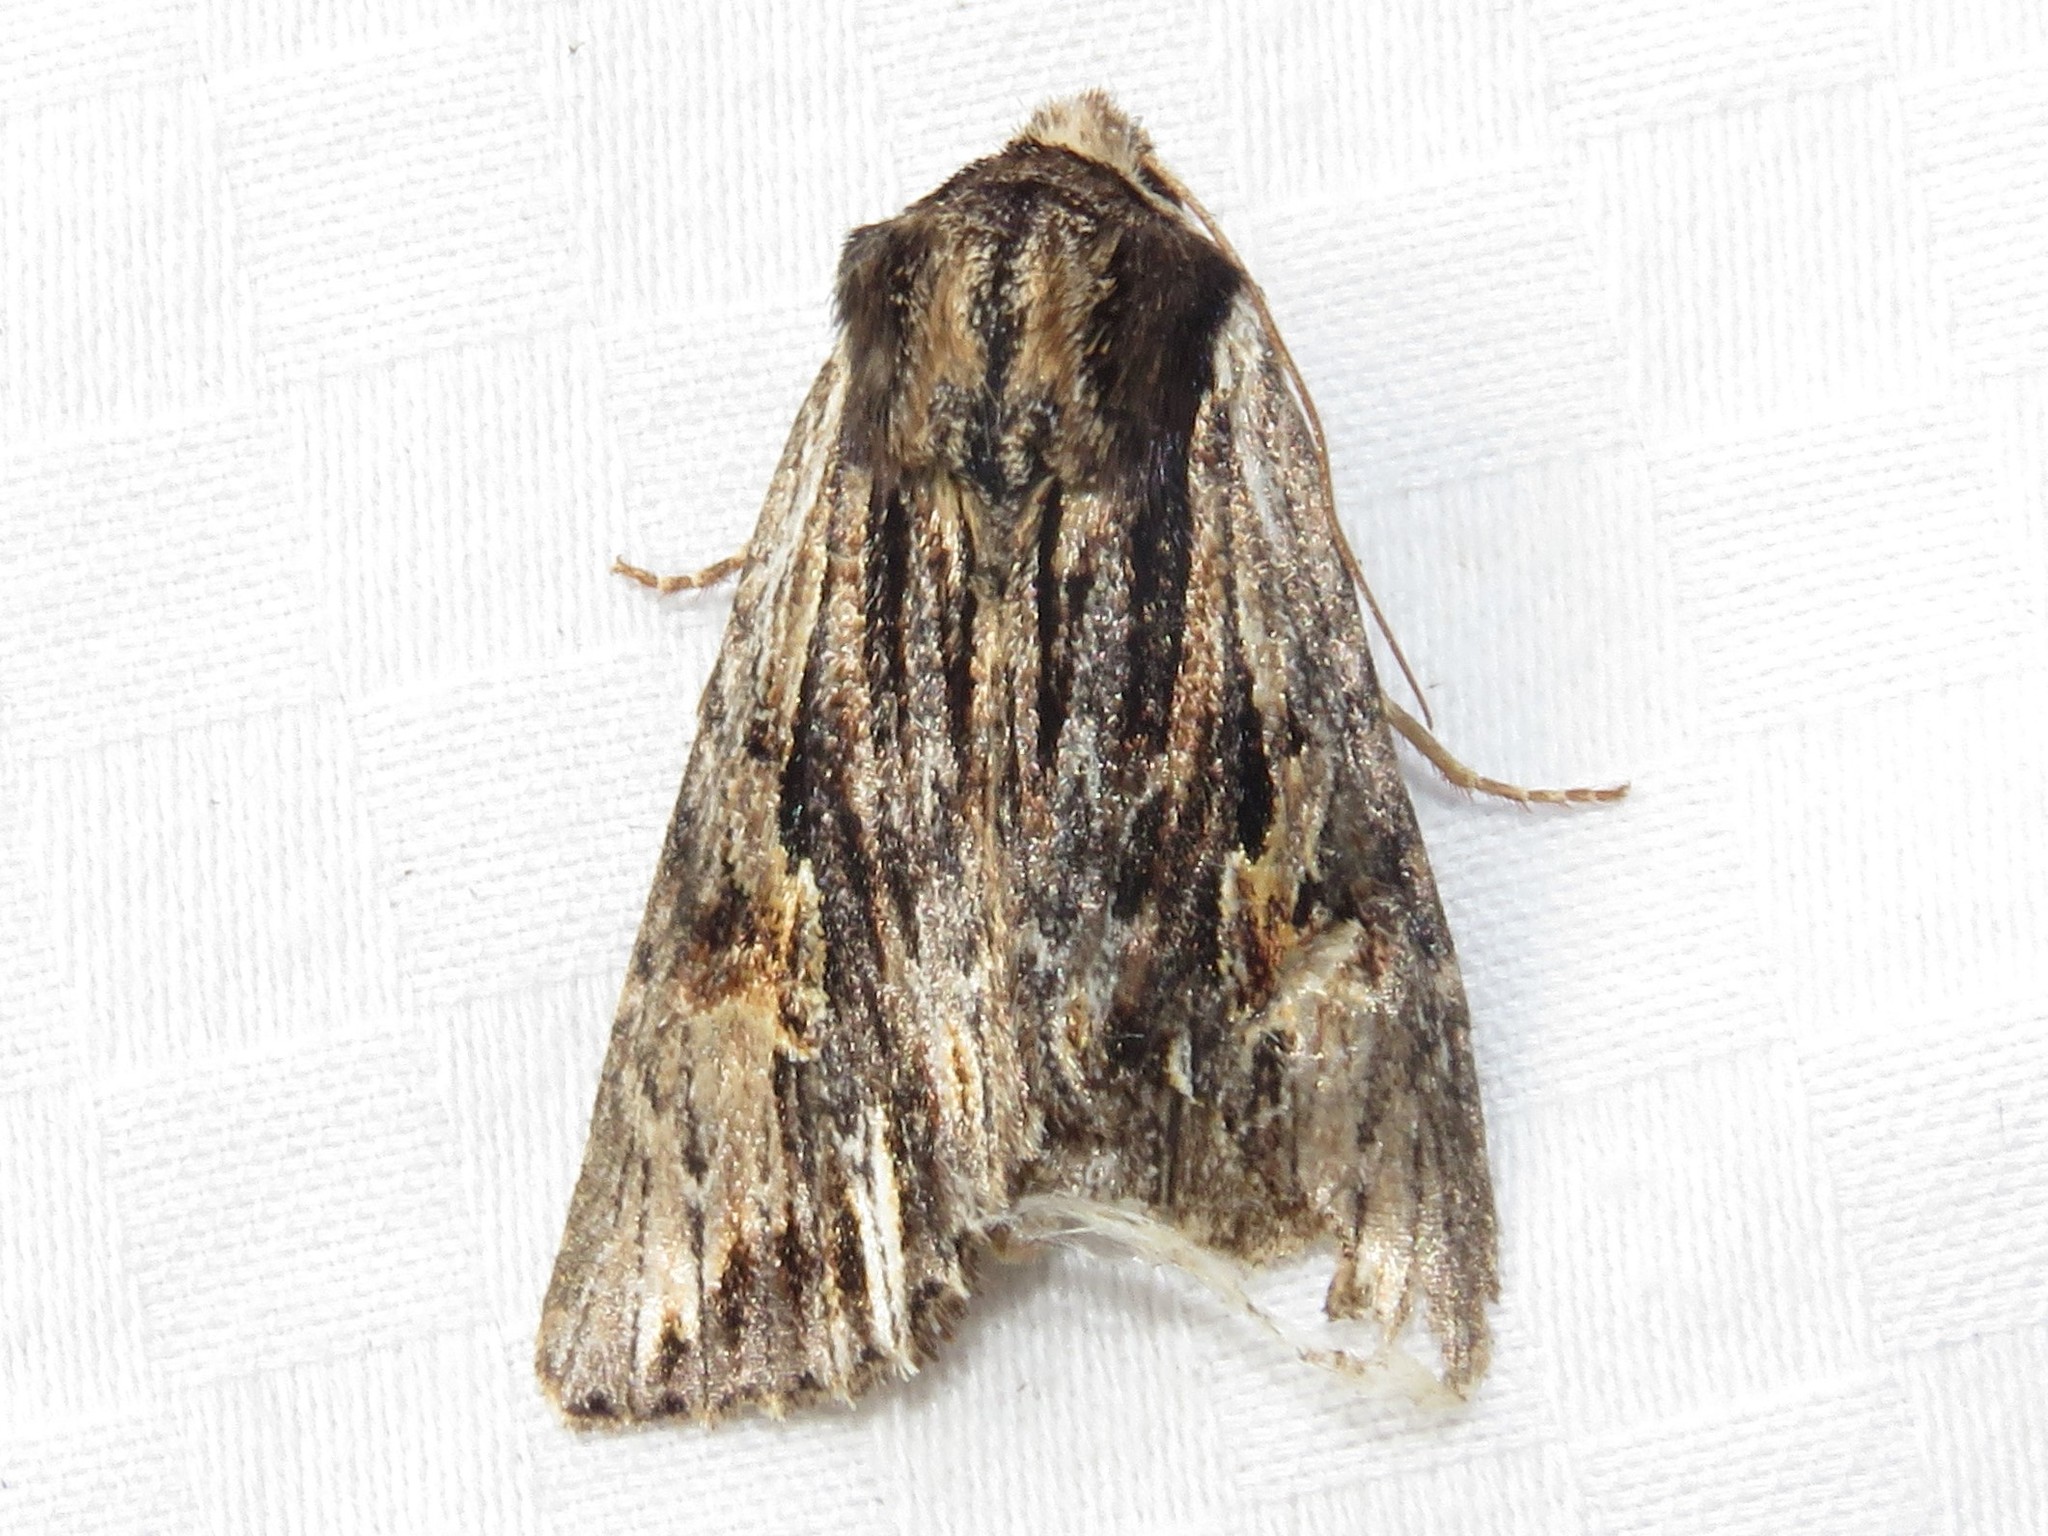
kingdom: Animalia
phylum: Arthropoda
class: Insecta
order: Lepidoptera
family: Noctuidae
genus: Achatia
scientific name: Achatia evicta
